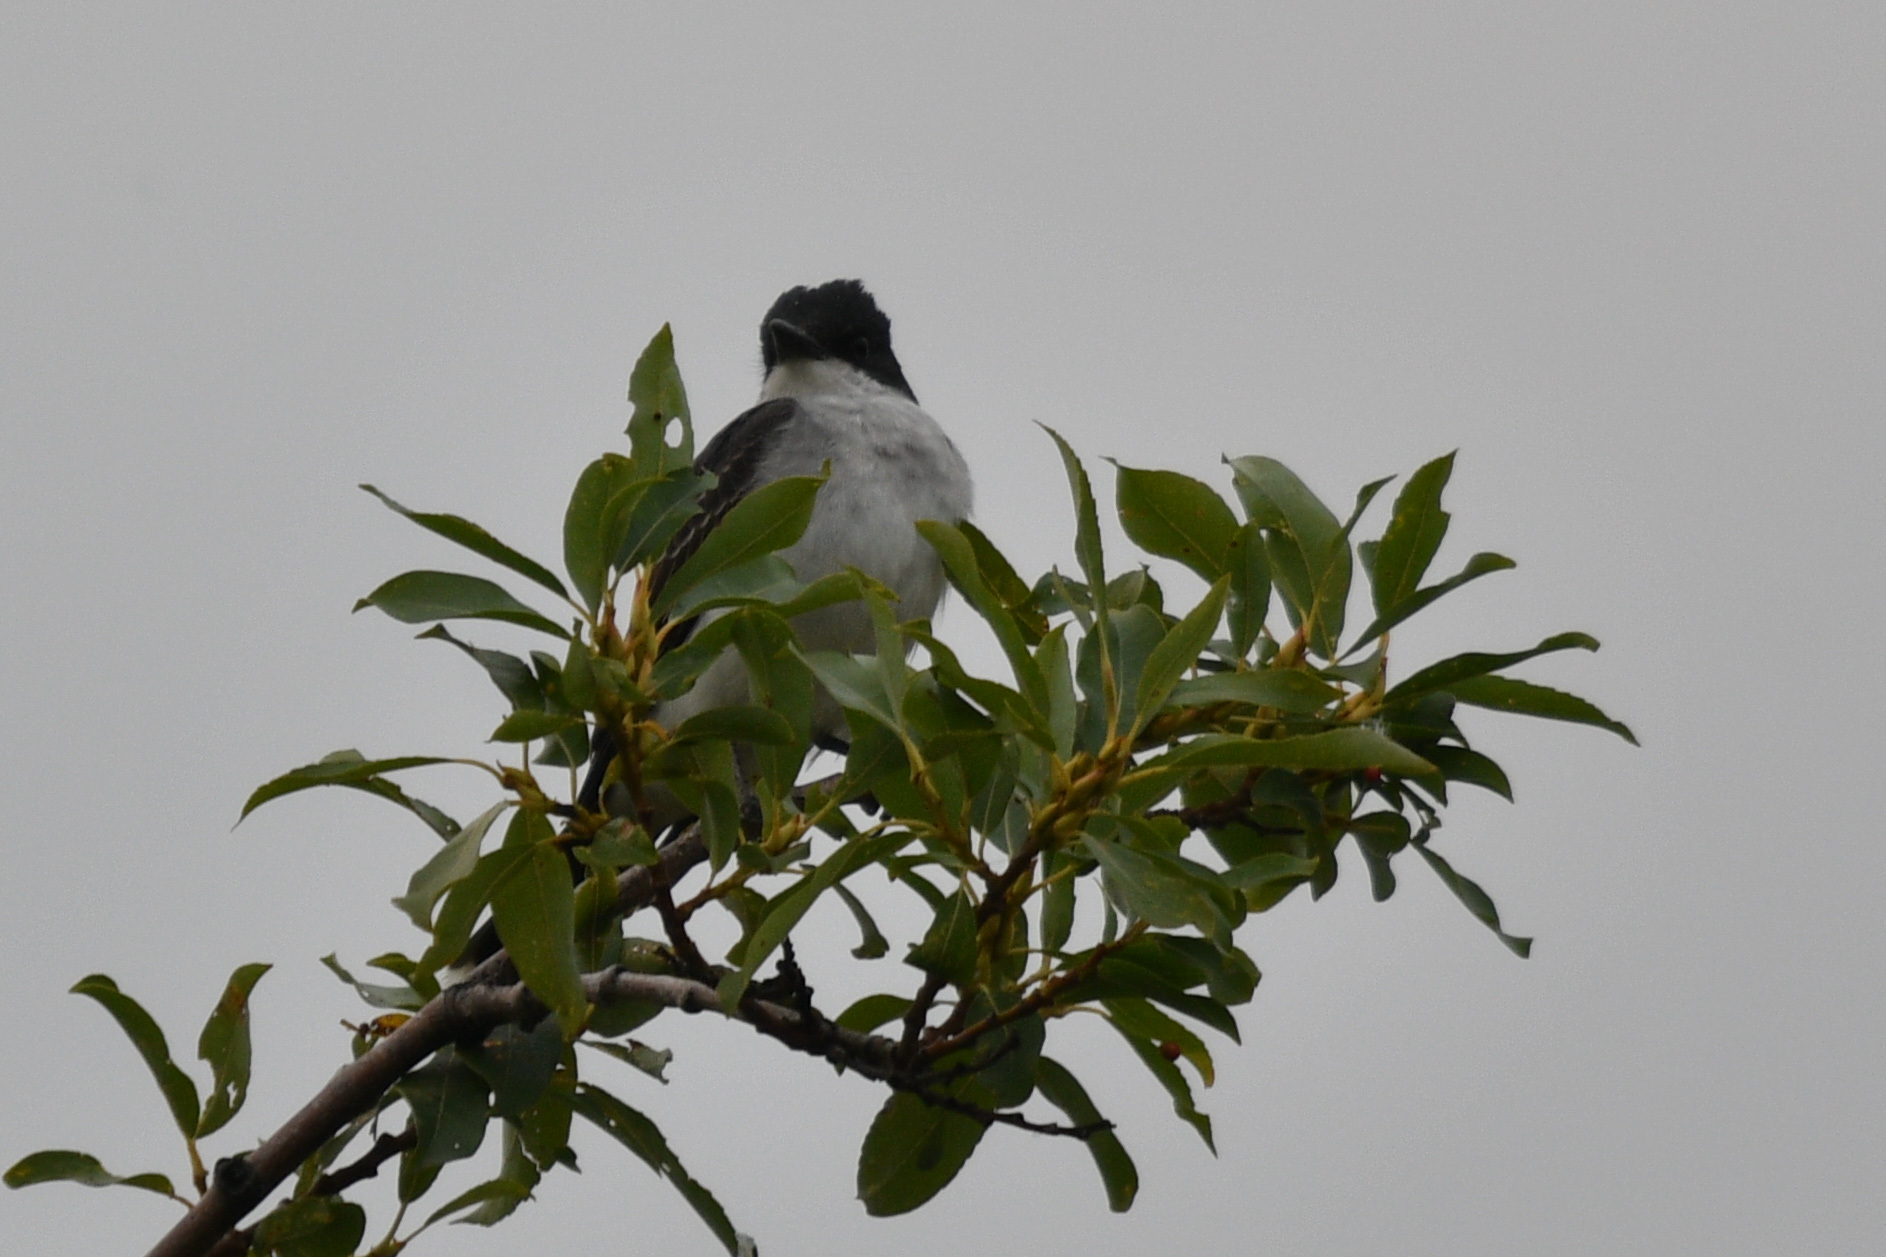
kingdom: Animalia
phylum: Chordata
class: Aves
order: Passeriformes
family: Tyrannidae
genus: Tyrannus
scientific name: Tyrannus tyrannus
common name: Eastern kingbird
